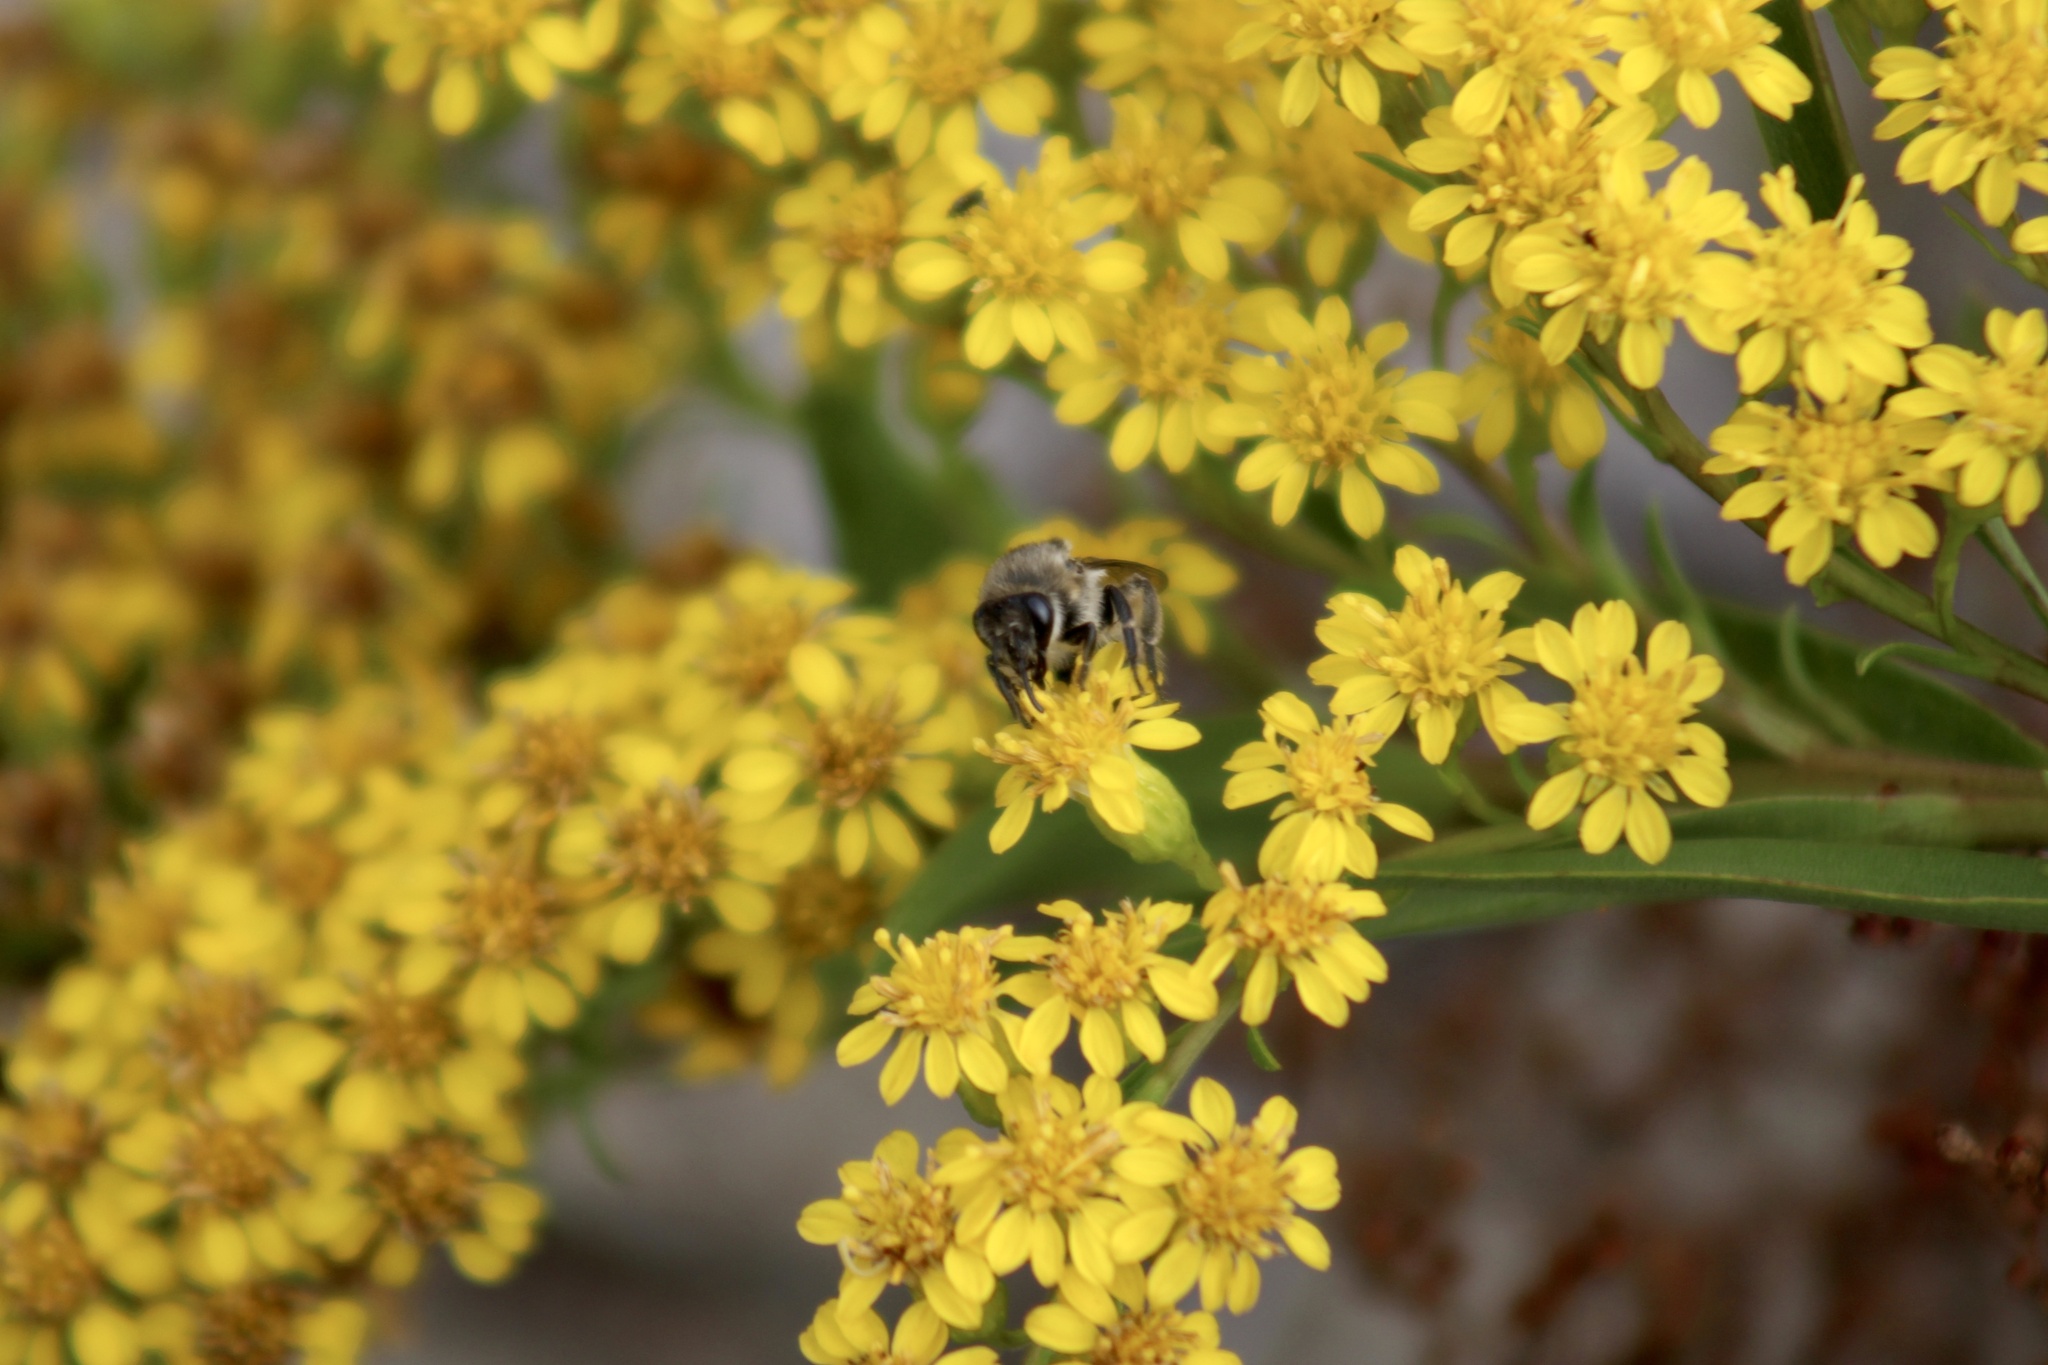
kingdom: Animalia
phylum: Arthropoda
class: Insecta
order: Hymenoptera
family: Colletidae
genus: Colletes
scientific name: Colletes compactus
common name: Aster cellophane bee
